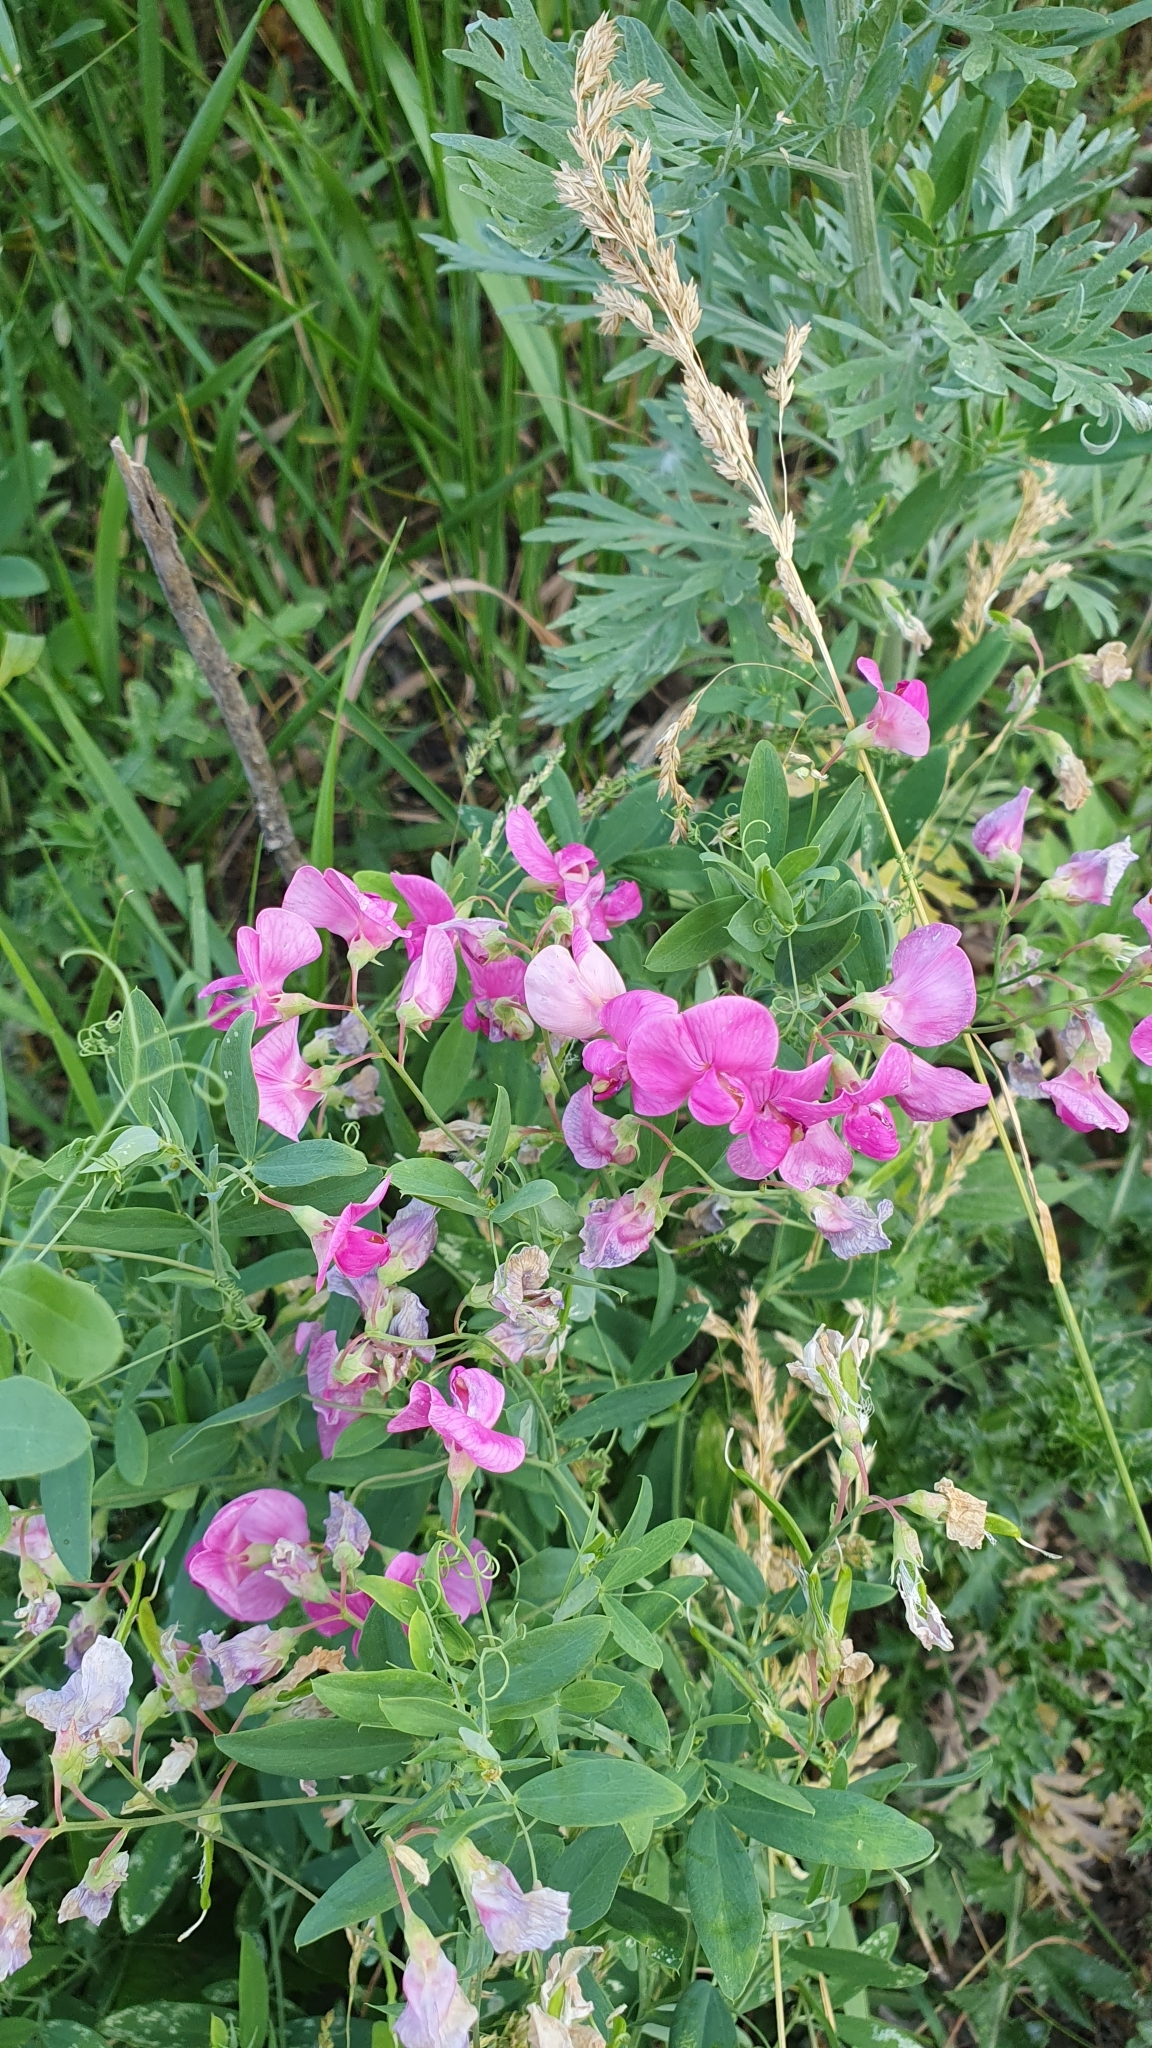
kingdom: Plantae
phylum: Tracheophyta
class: Magnoliopsida
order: Fabales
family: Fabaceae
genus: Lathyrus
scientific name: Lathyrus tuberosus
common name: Tuberous pea
